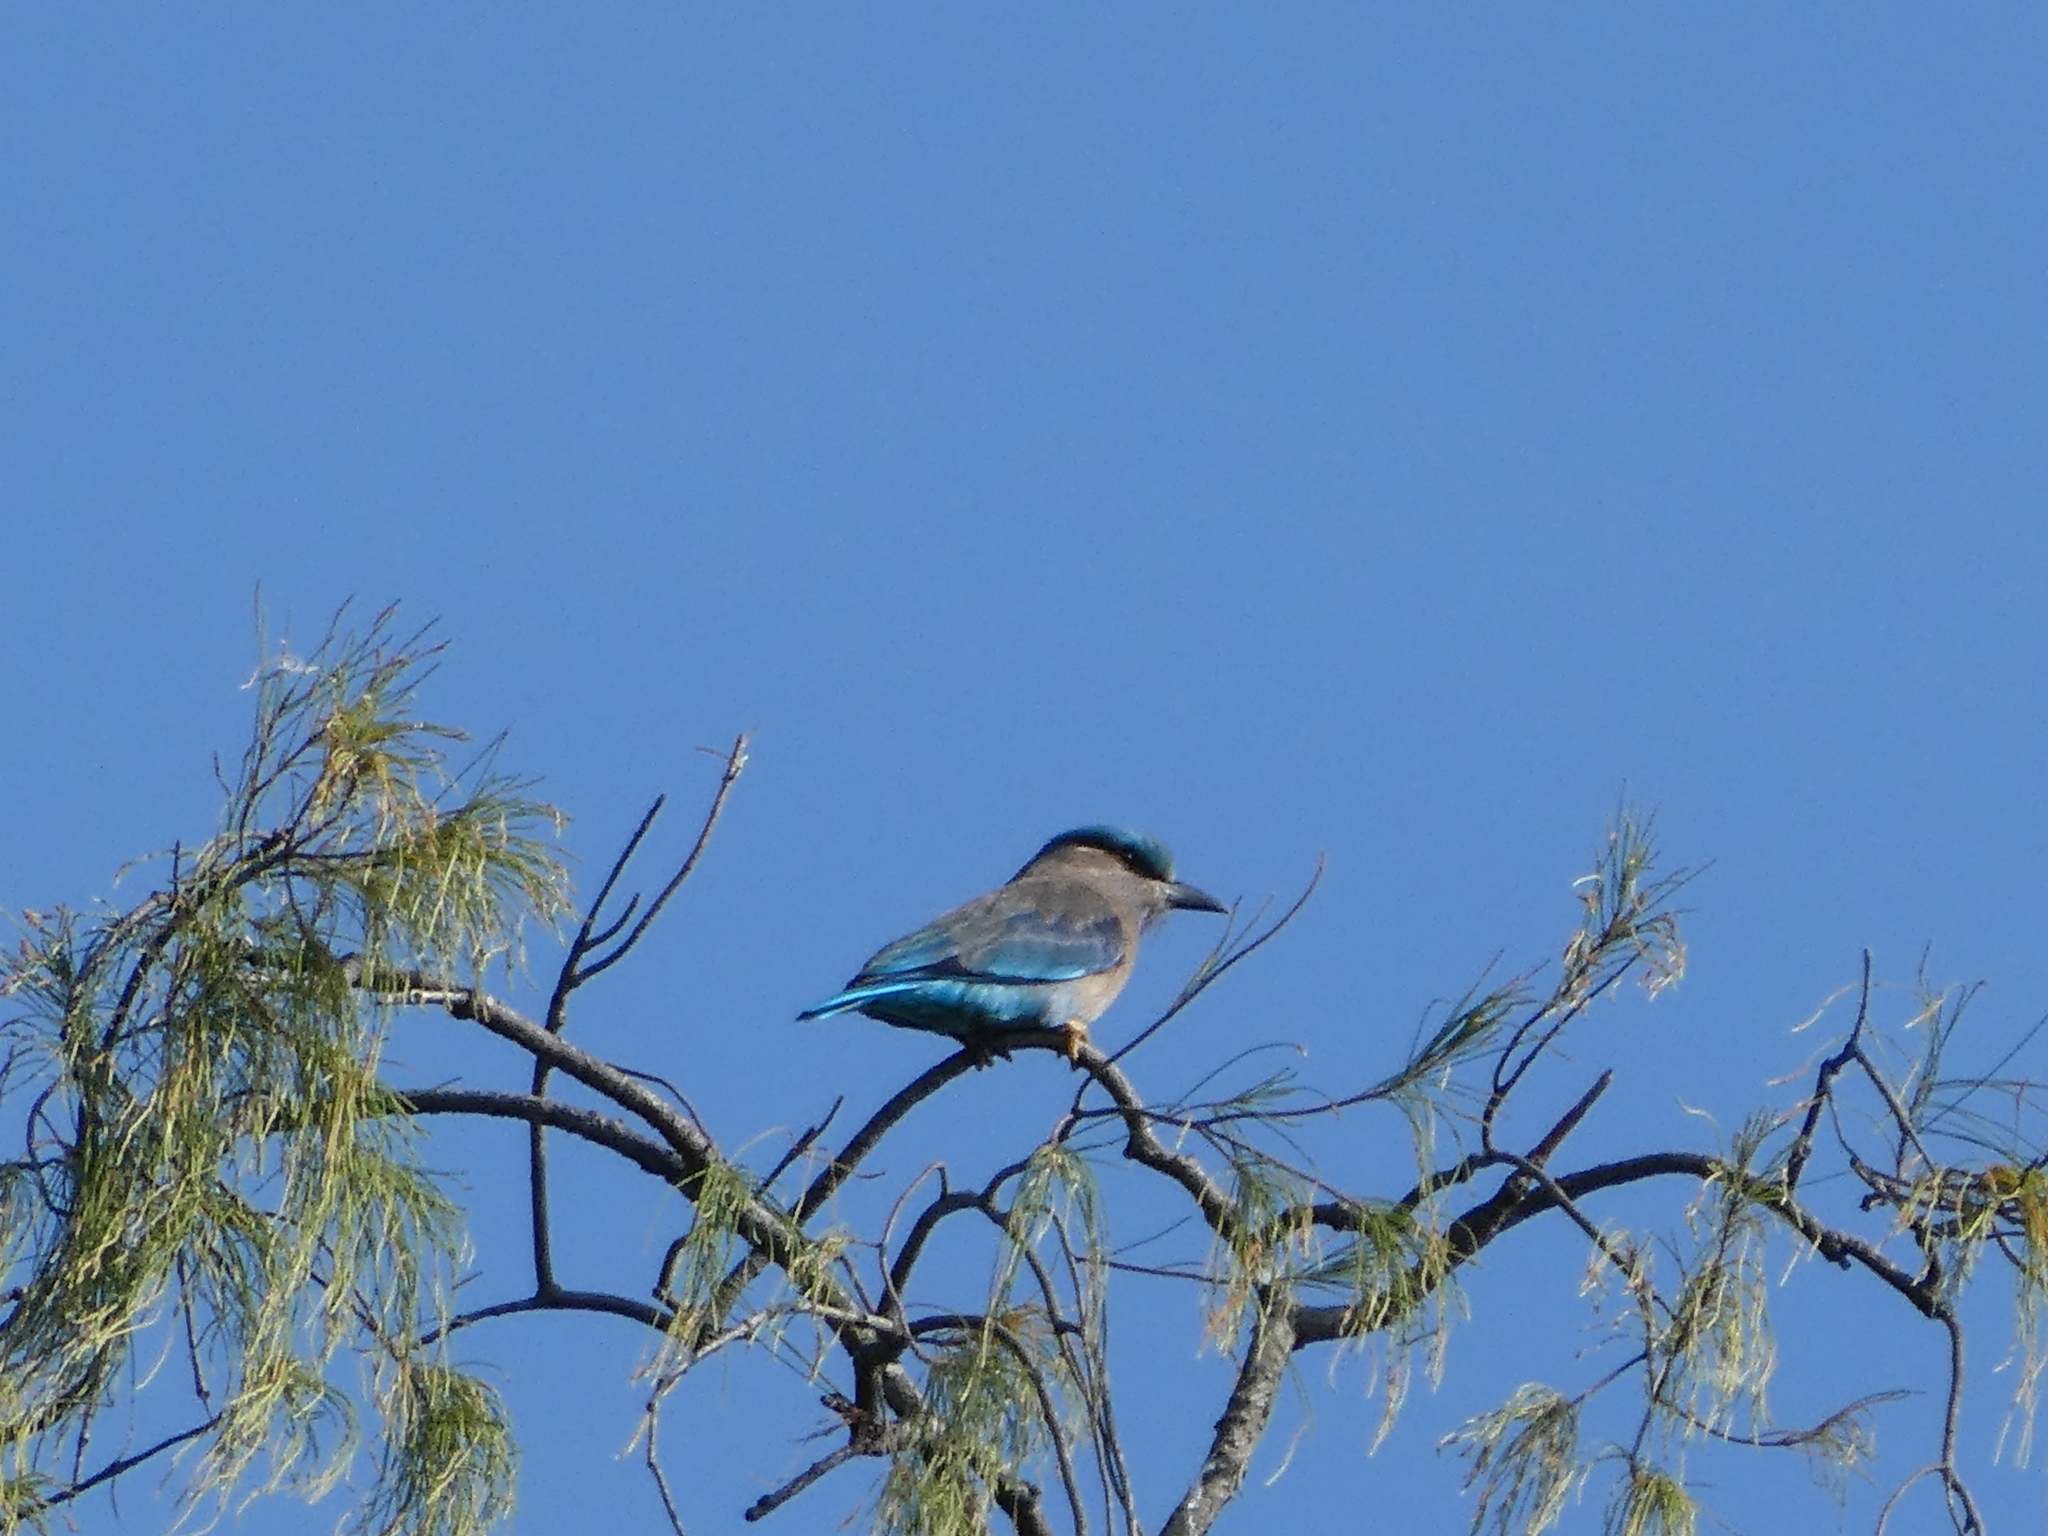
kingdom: Animalia
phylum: Chordata
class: Aves
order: Coraciiformes
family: Coraciidae
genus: Coracias
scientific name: Coracias affinis
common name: Indochinese roller
